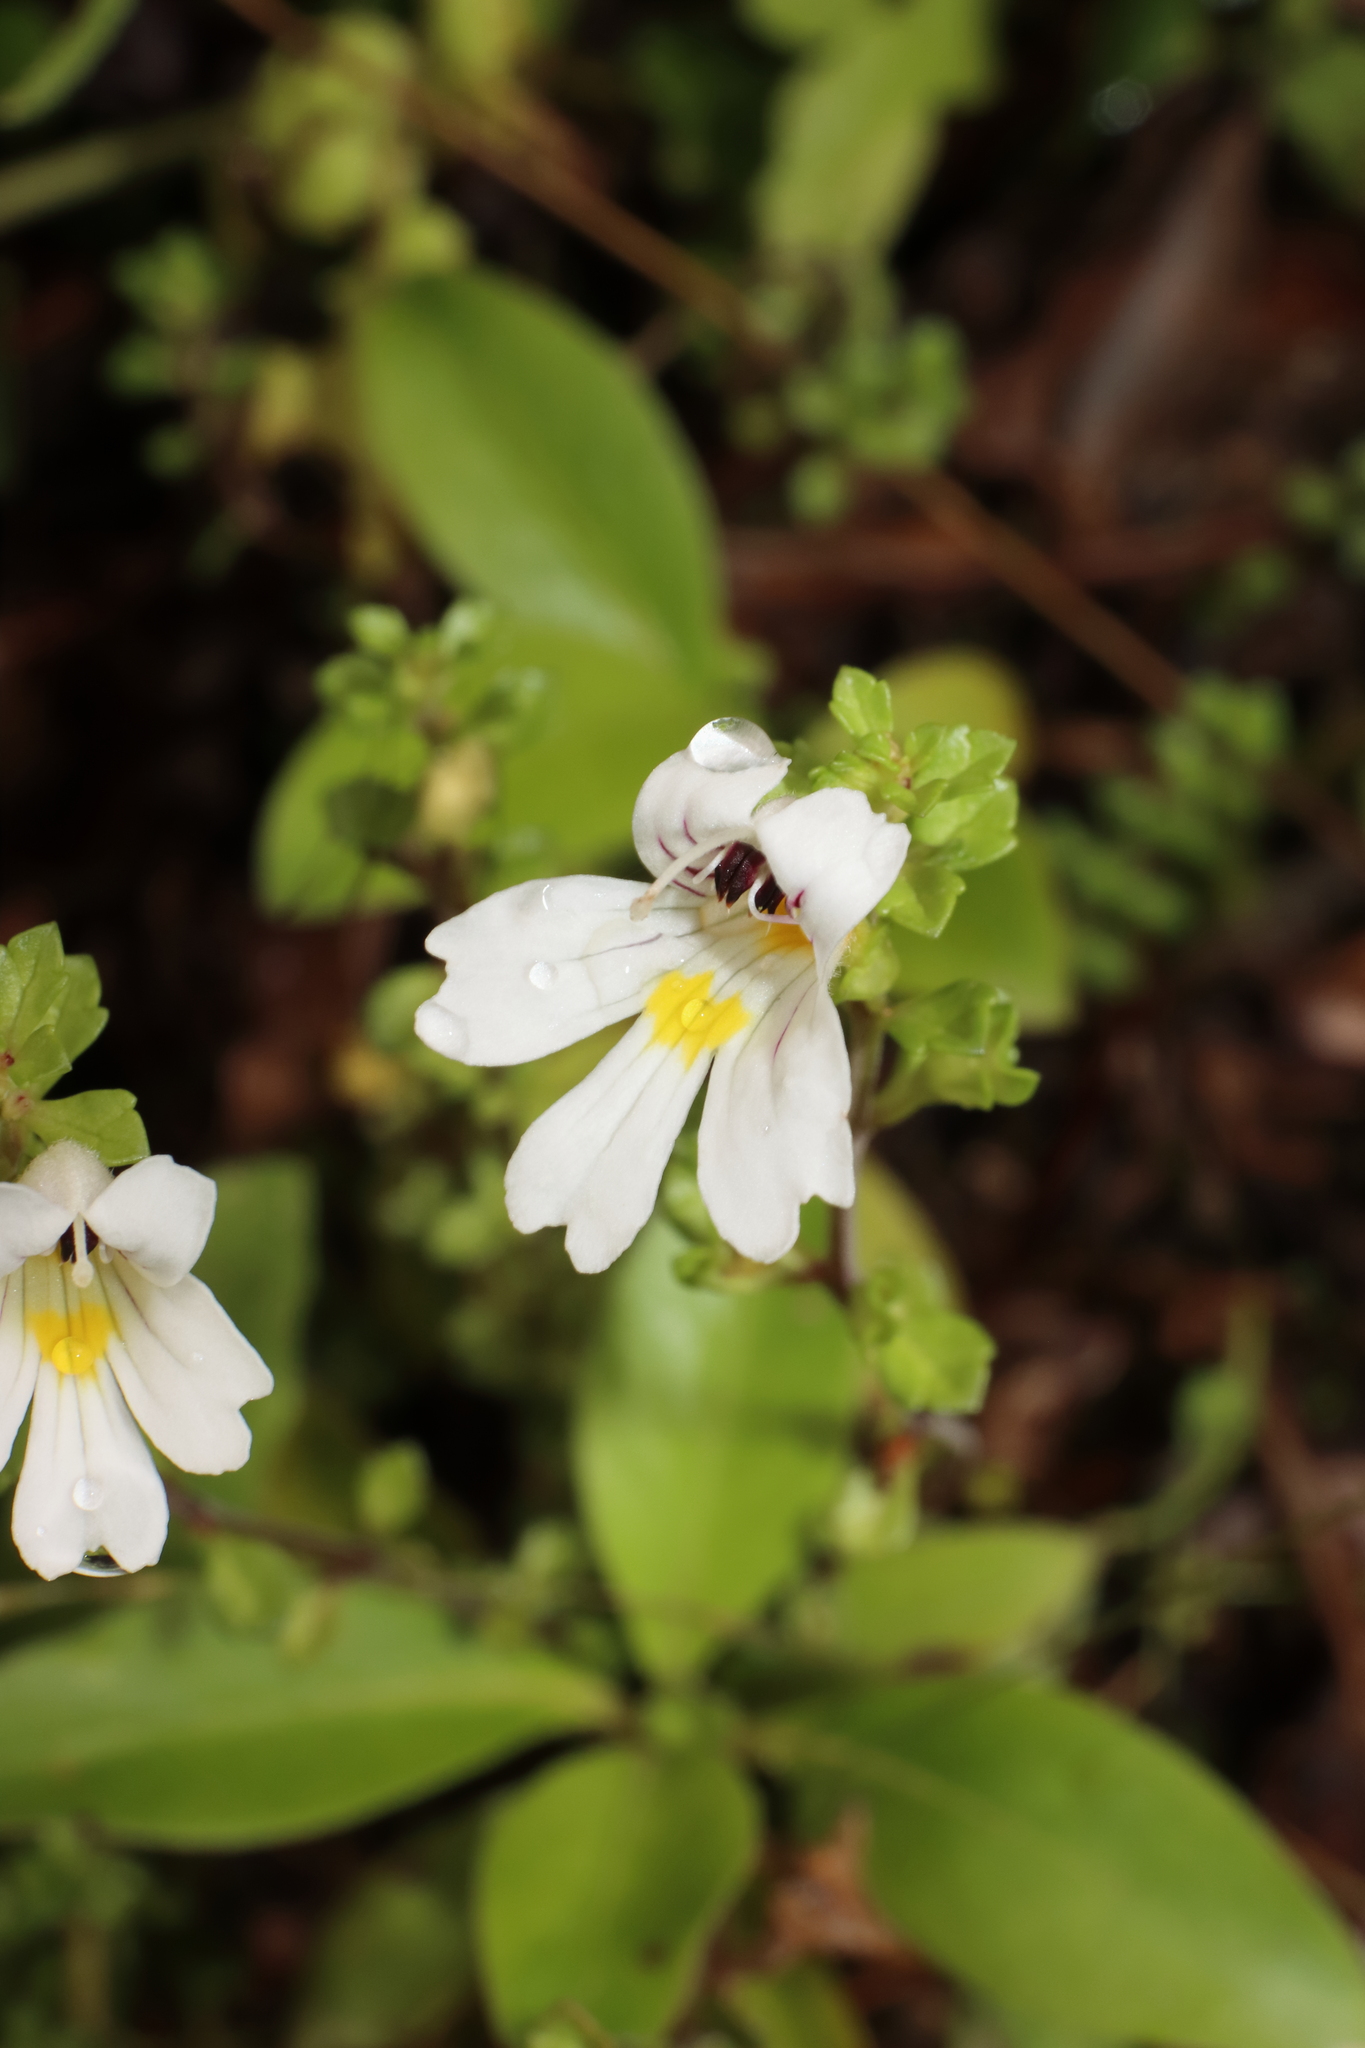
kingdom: Plantae
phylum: Tracheophyta
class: Magnoliopsida
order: Lamiales
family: Orobanchaceae
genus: Euphrasia
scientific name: Euphrasia cuneata
